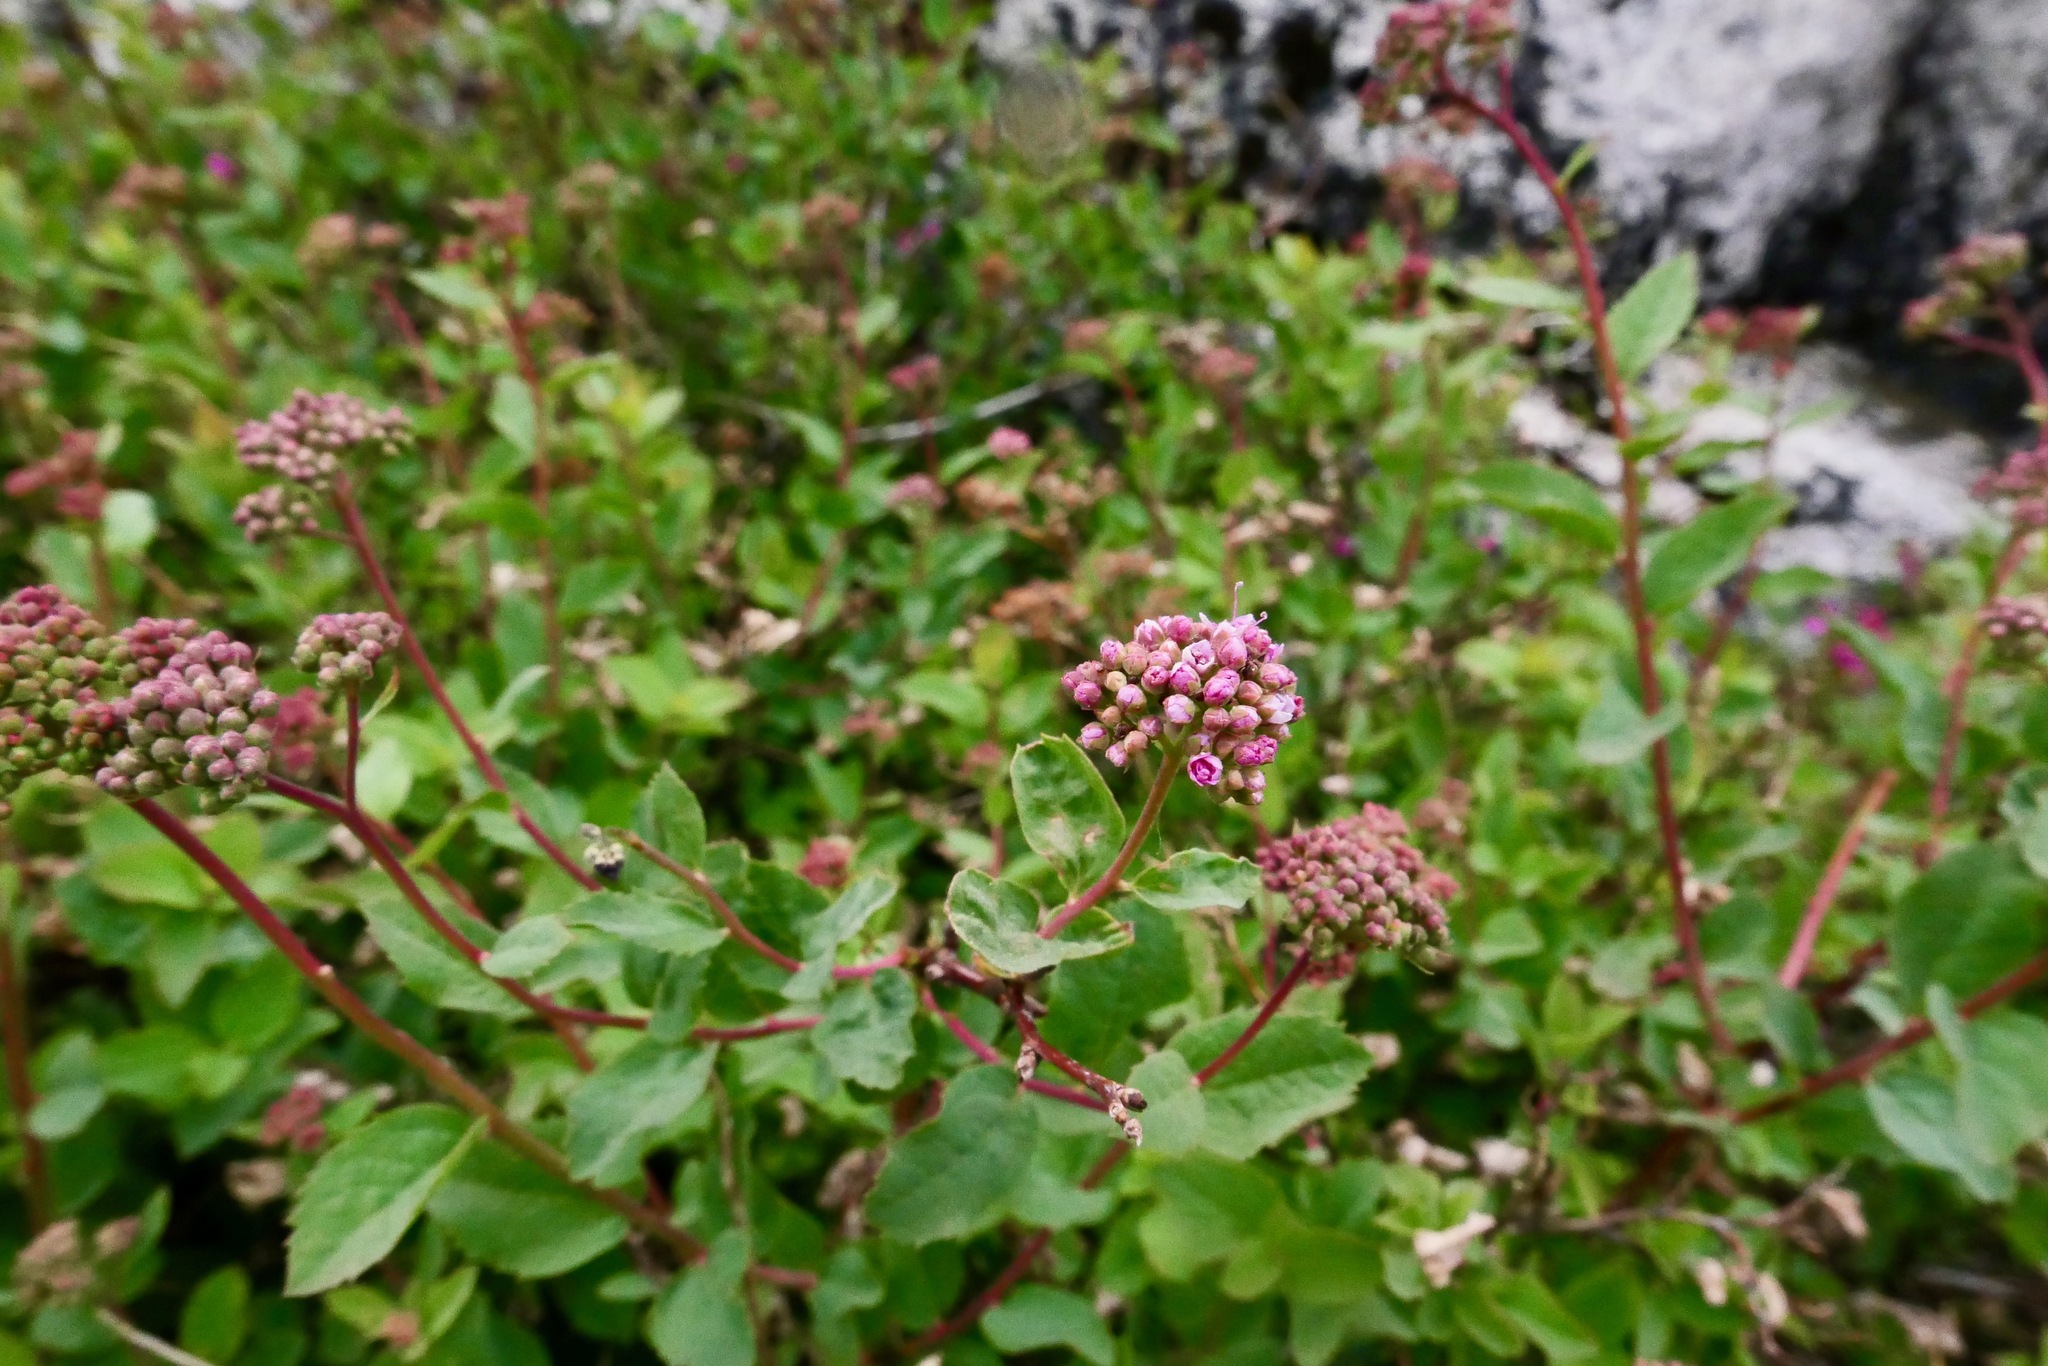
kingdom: Plantae
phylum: Tracheophyta
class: Magnoliopsida
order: Rosales
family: Rosaceae
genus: Spiraea
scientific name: Spiraea splendens
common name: Subalpine meadowsweet
